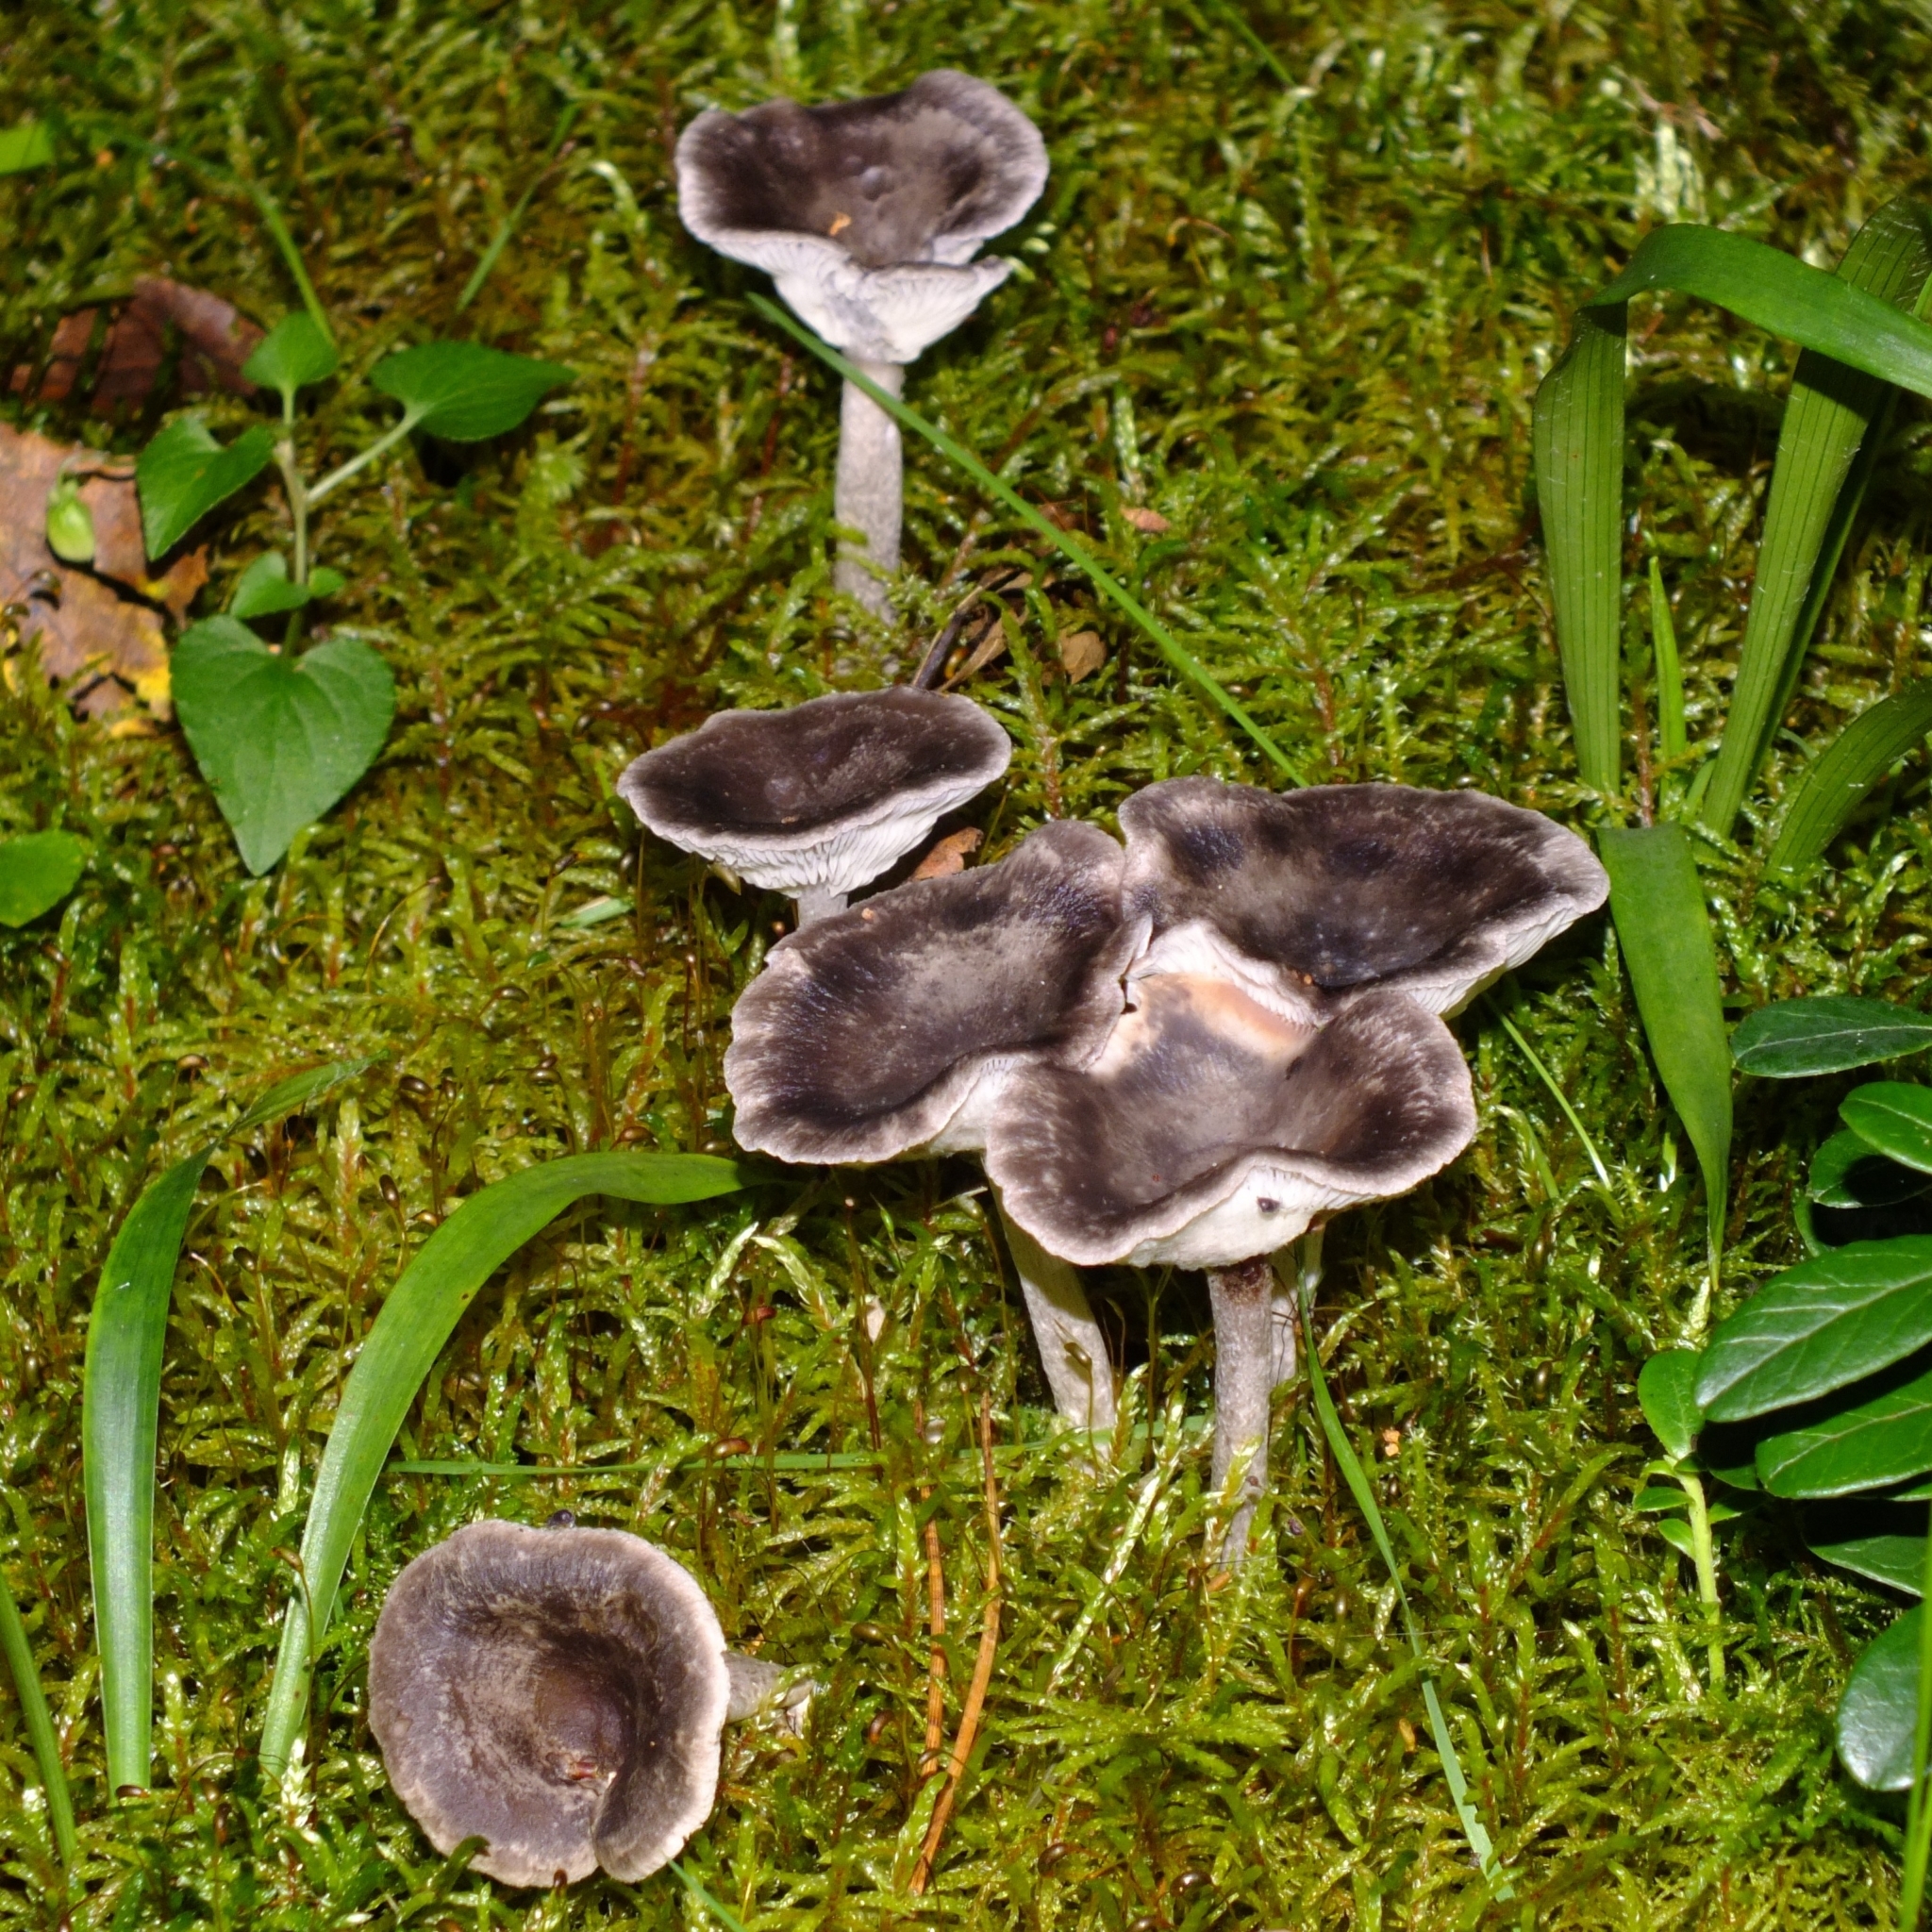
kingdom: Fungi
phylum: Basidiomycota
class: Agaricomycetes
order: Agaricales
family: Hygrophoraceae
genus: Cantharellula
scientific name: Cantharellula umbonata
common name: The humpback
